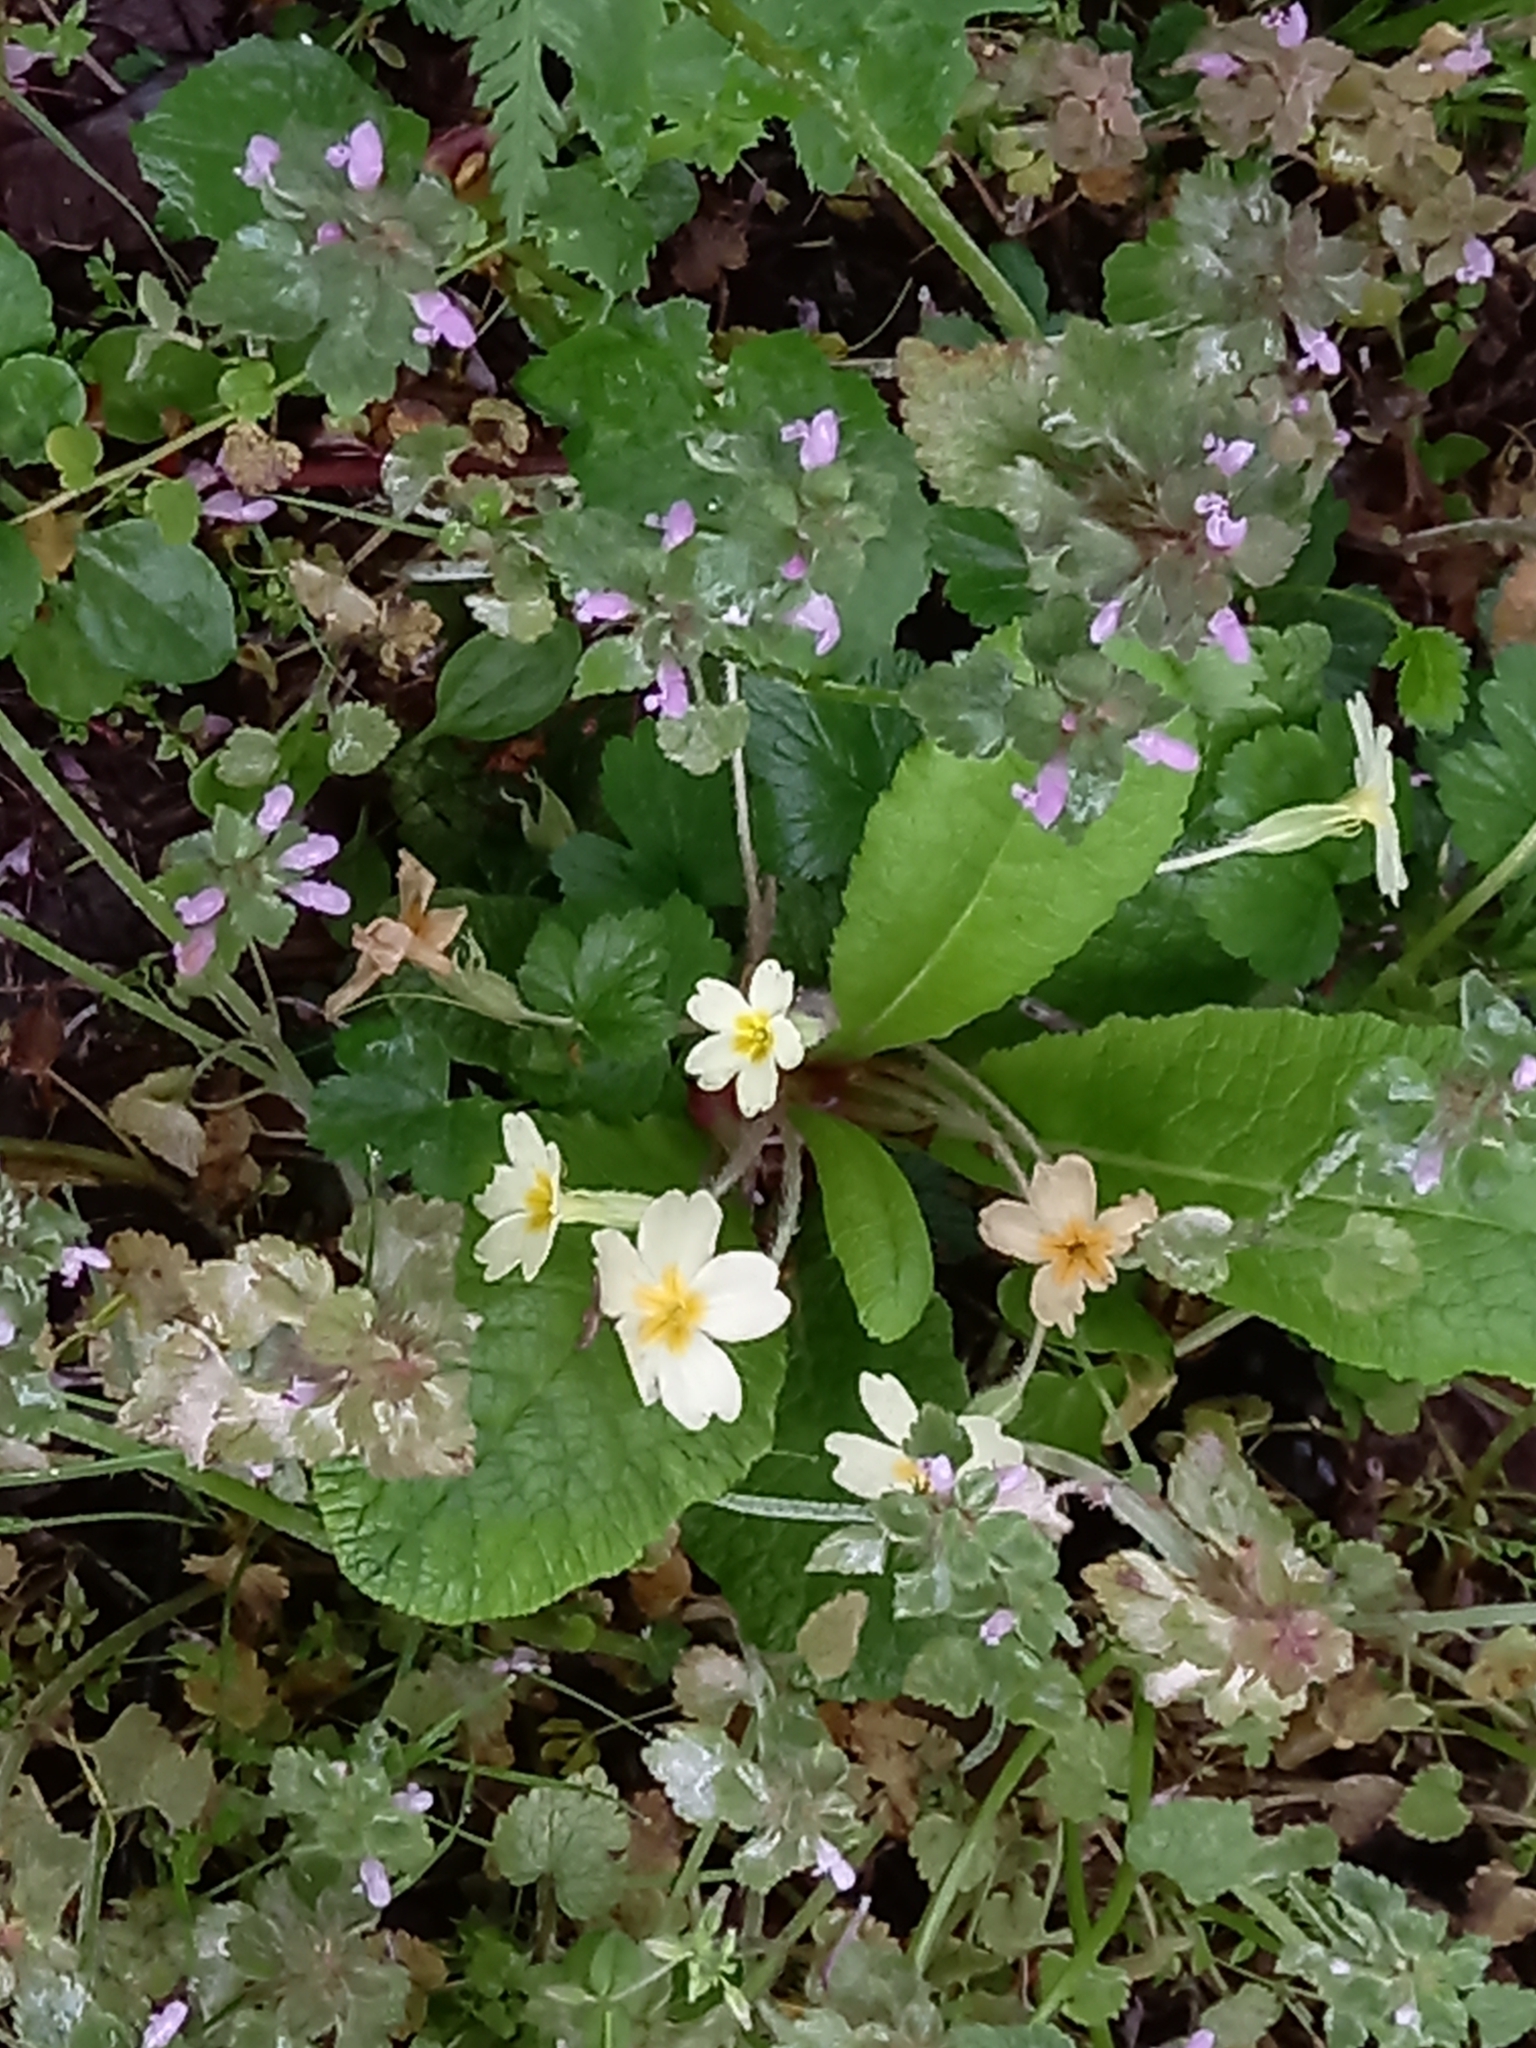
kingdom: Plantae
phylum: Tracheophyta
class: Magnoliopsida
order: Ericales
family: Primulaceae
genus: Primula
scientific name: Primula vulgaris
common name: Primrose
